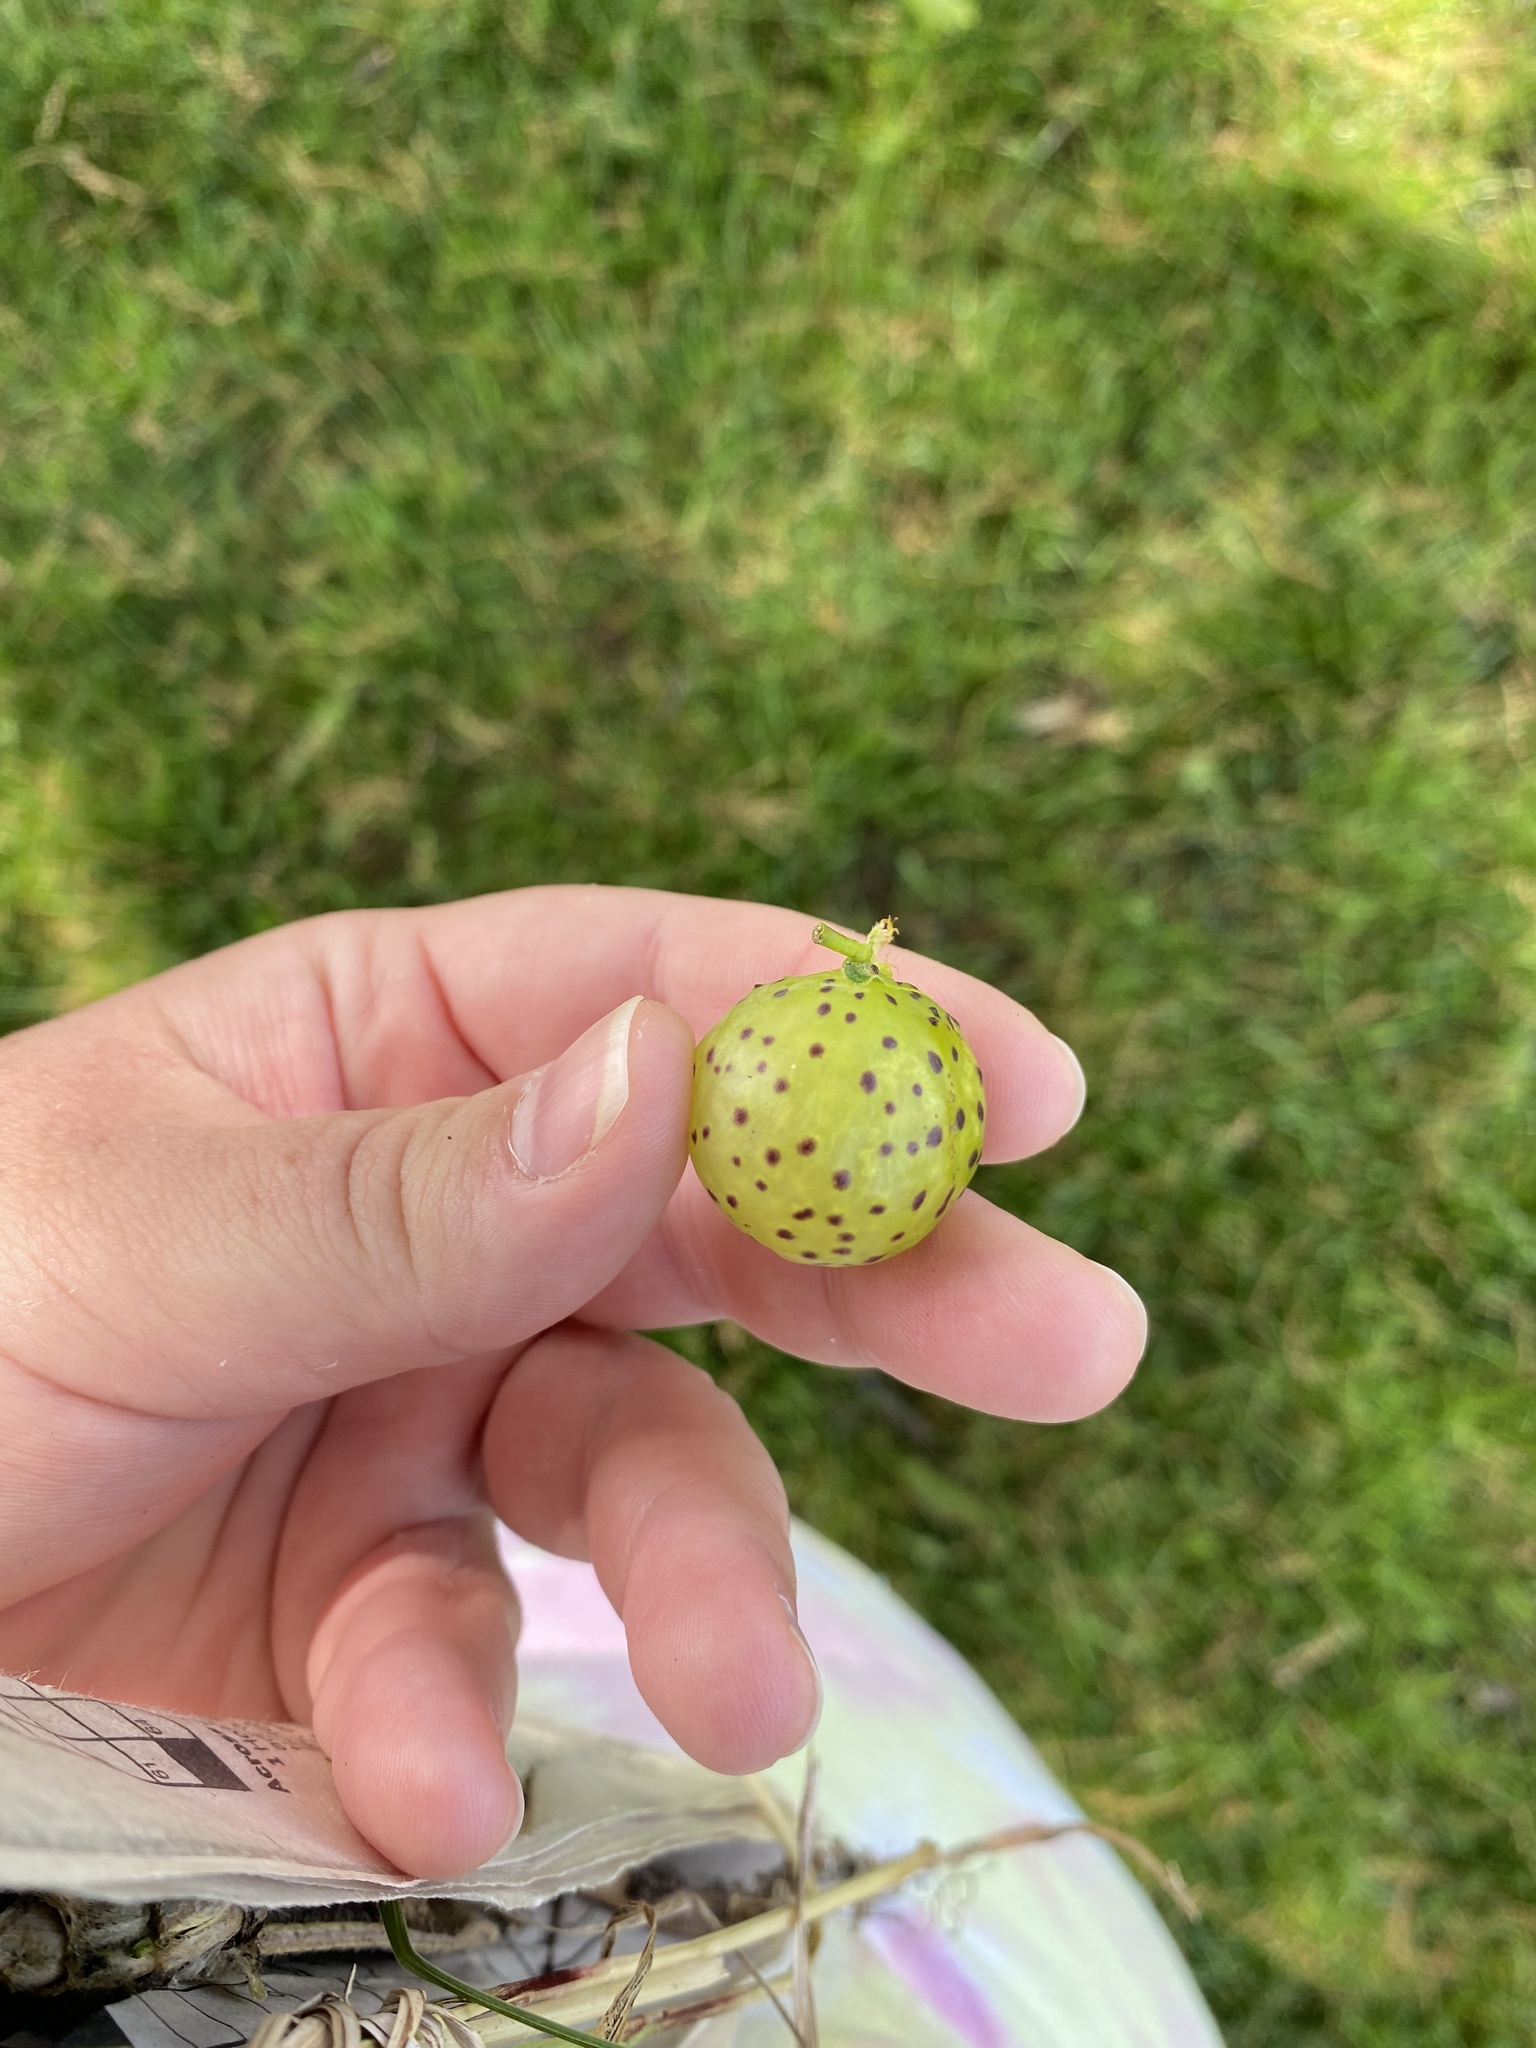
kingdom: Animalia
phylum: Arthropoda
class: Insecta
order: Hymenoptera
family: Cynipidae
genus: Amphibolips
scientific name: Amphibolips
